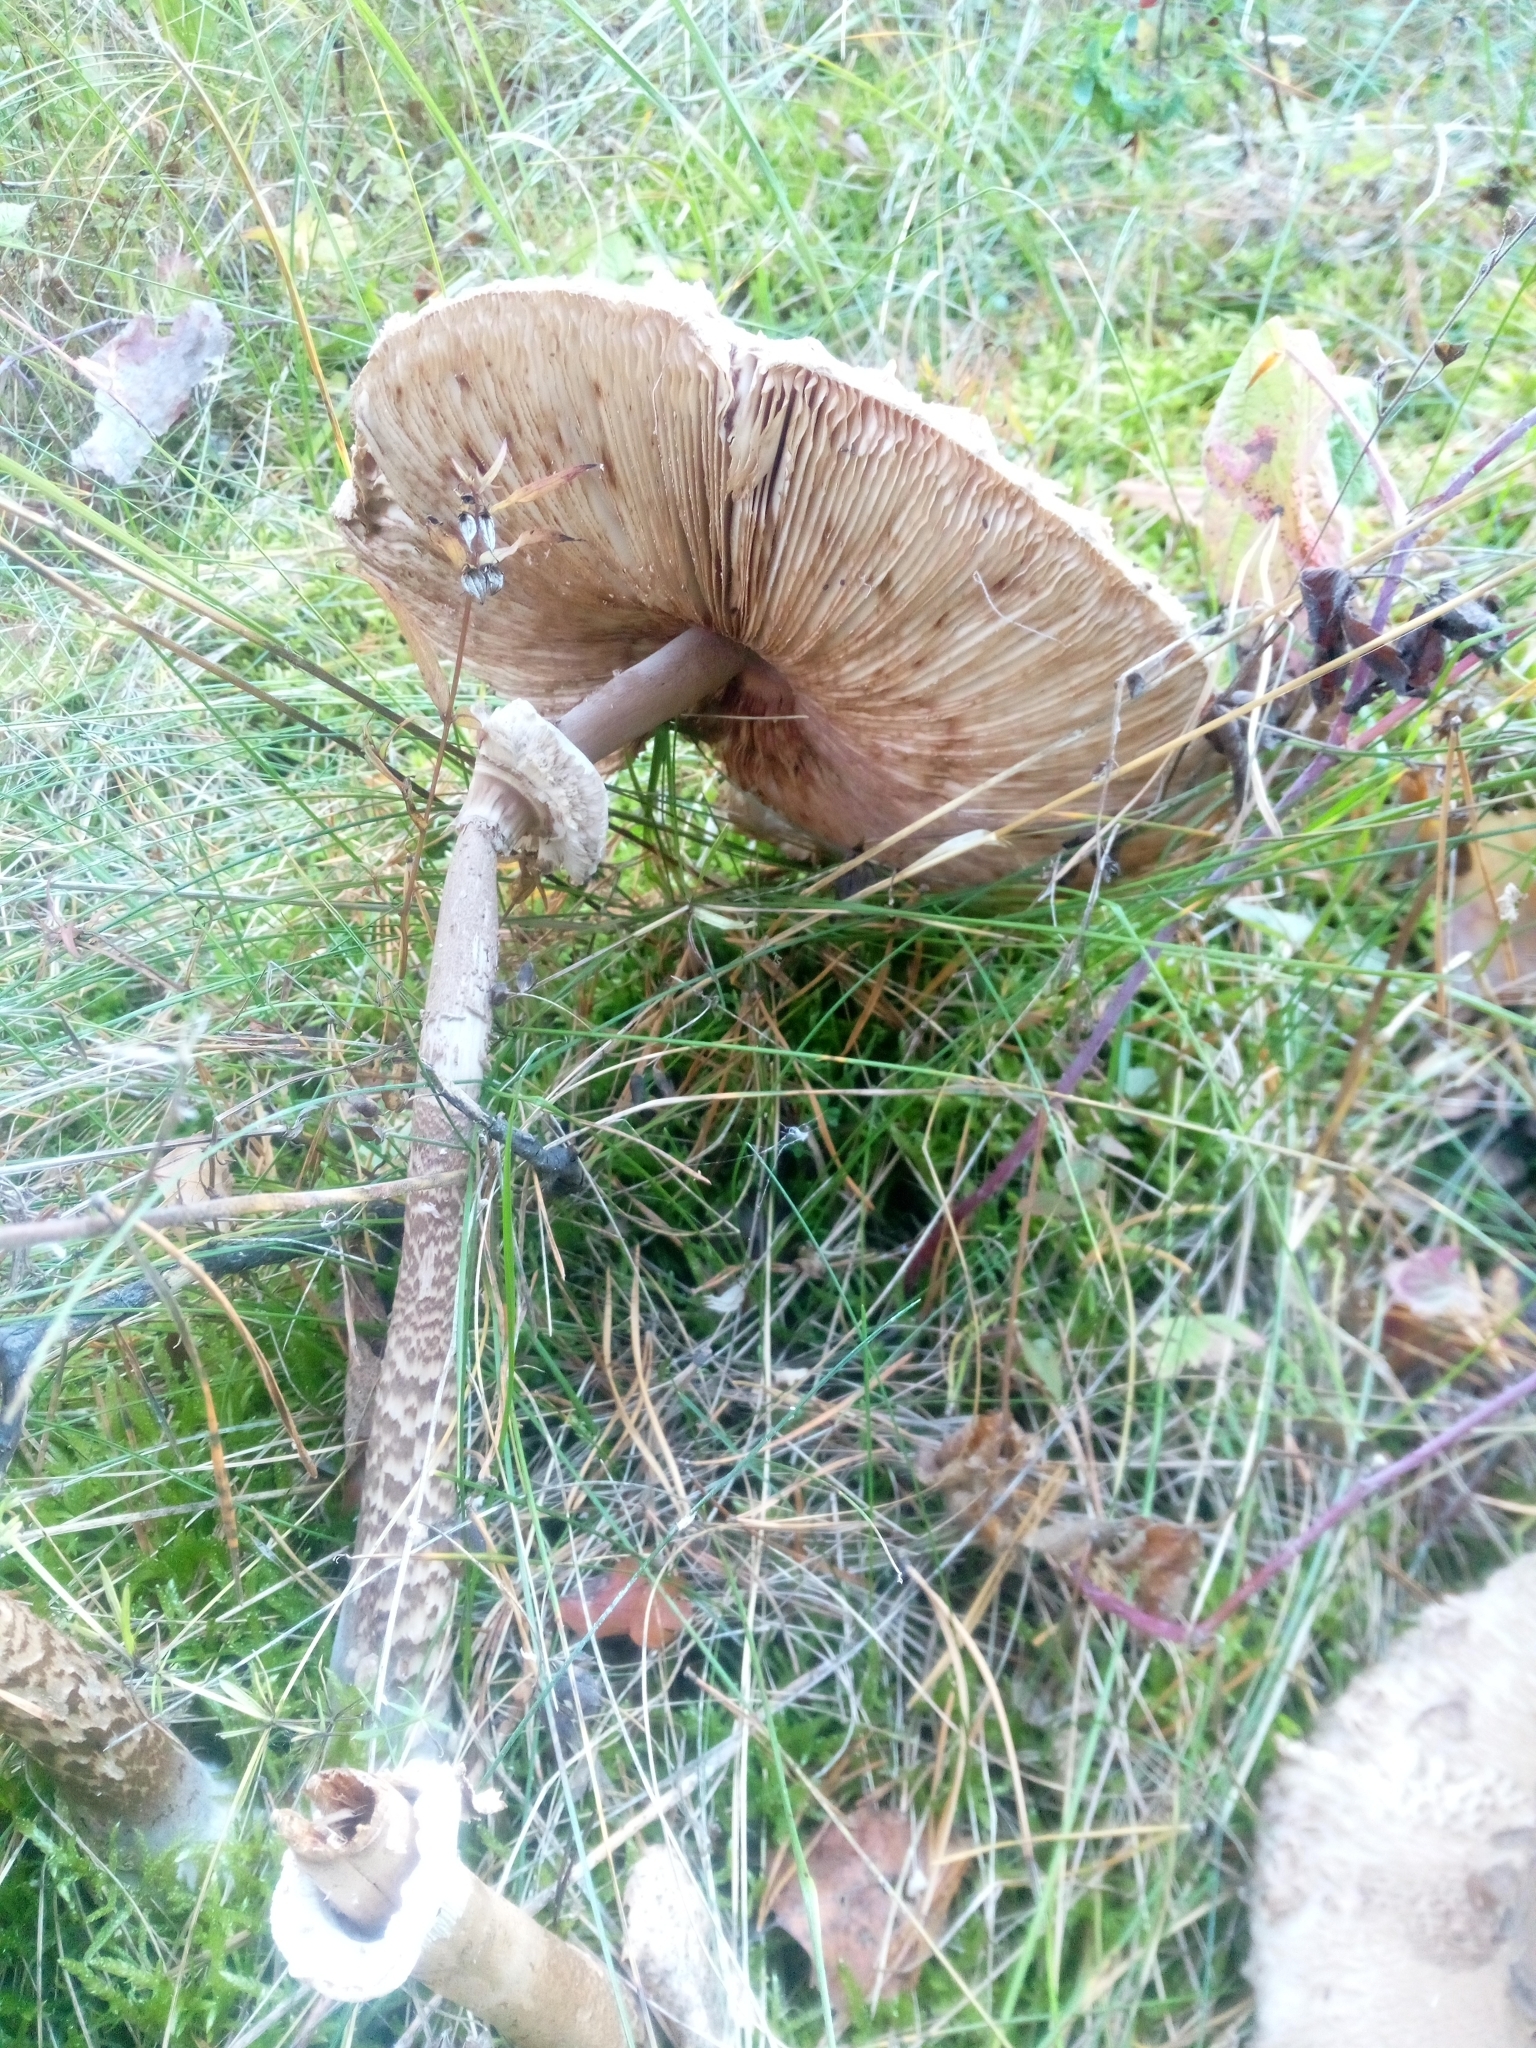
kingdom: Fungi
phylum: Basidiomycota
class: Agaricomycetes
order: Agaricales
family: Agaricaceae
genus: Macrolepiota
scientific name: Macrolepiota procera
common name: Parasol
